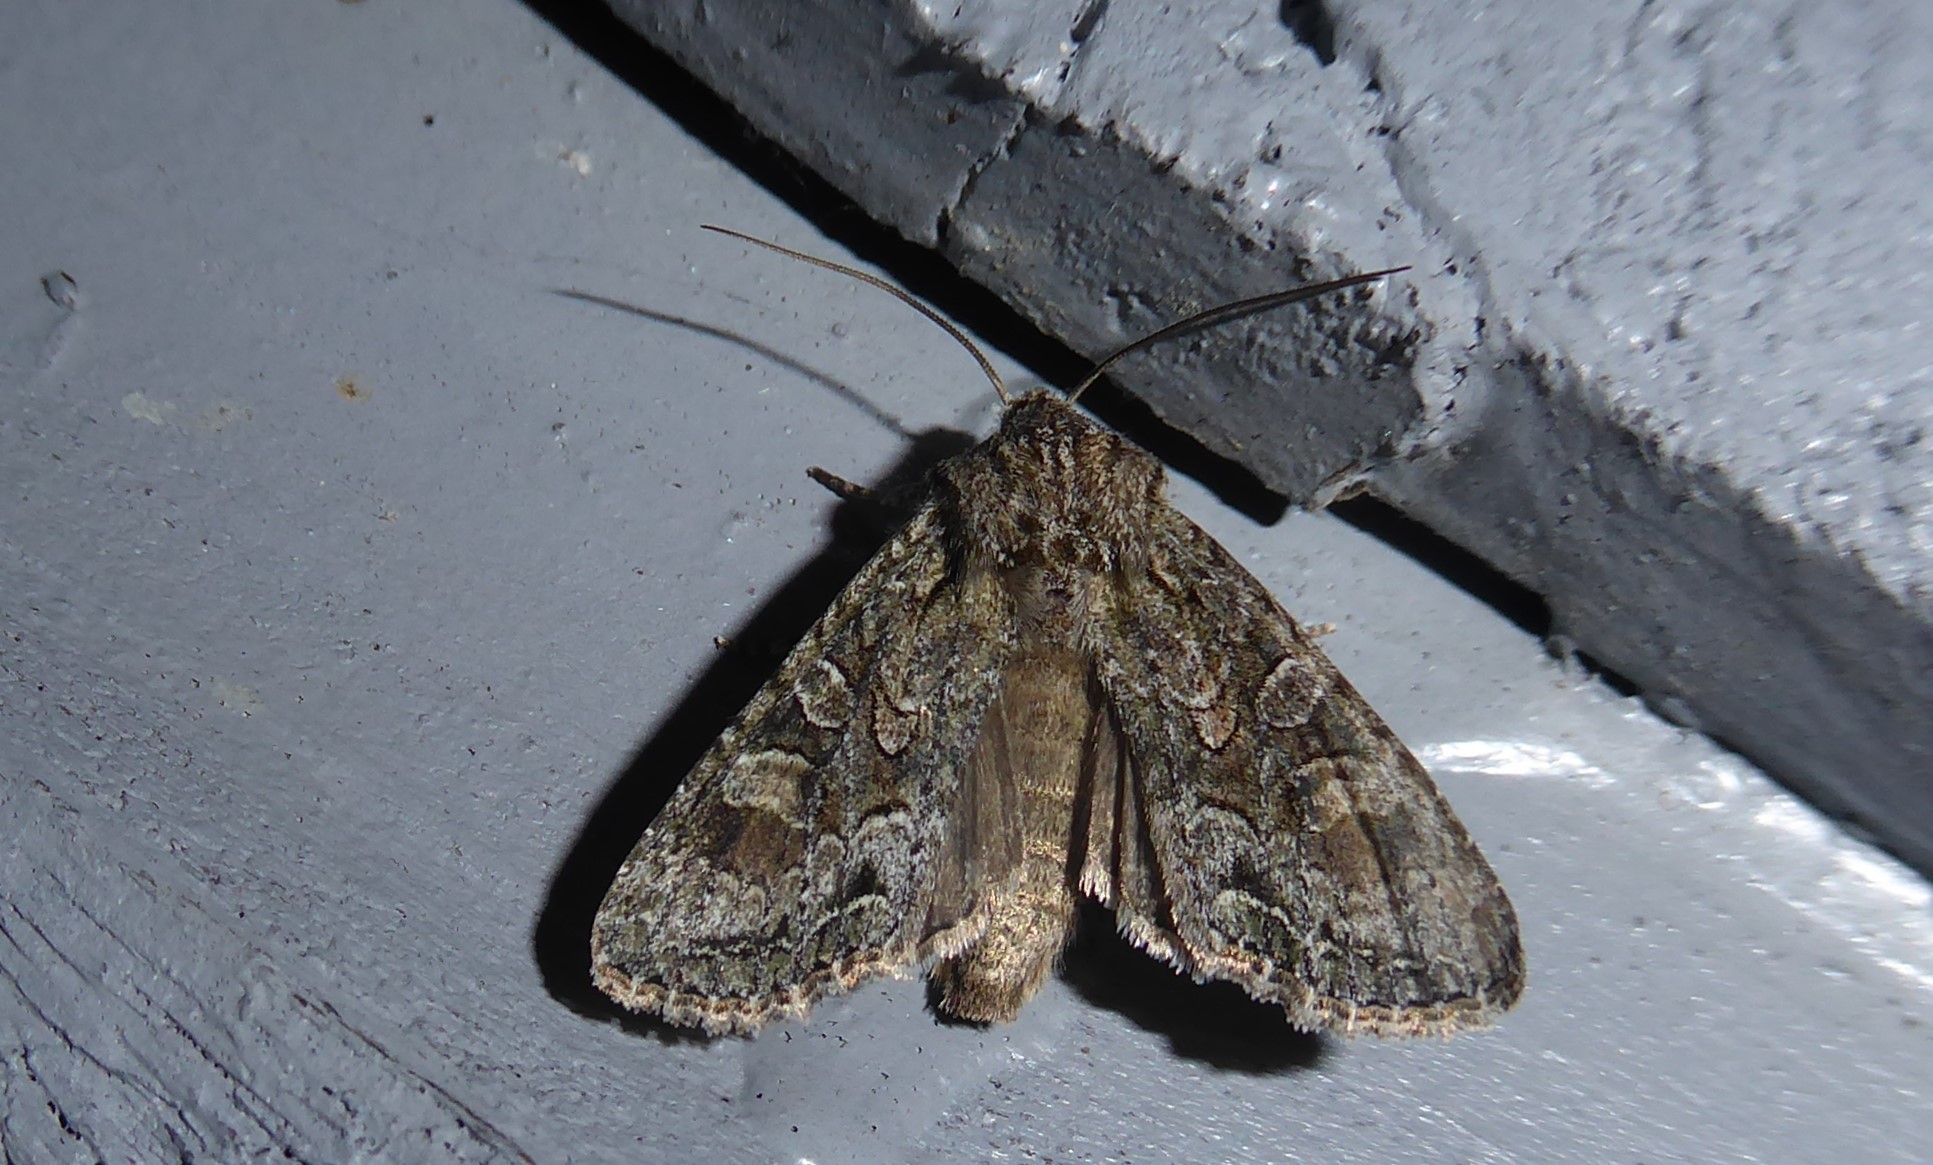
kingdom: Animalia
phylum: Arthropoda
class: Insecta
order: Lepidoptera
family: Noctuidae
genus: Ichneutica
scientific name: Ichneutica mutans
